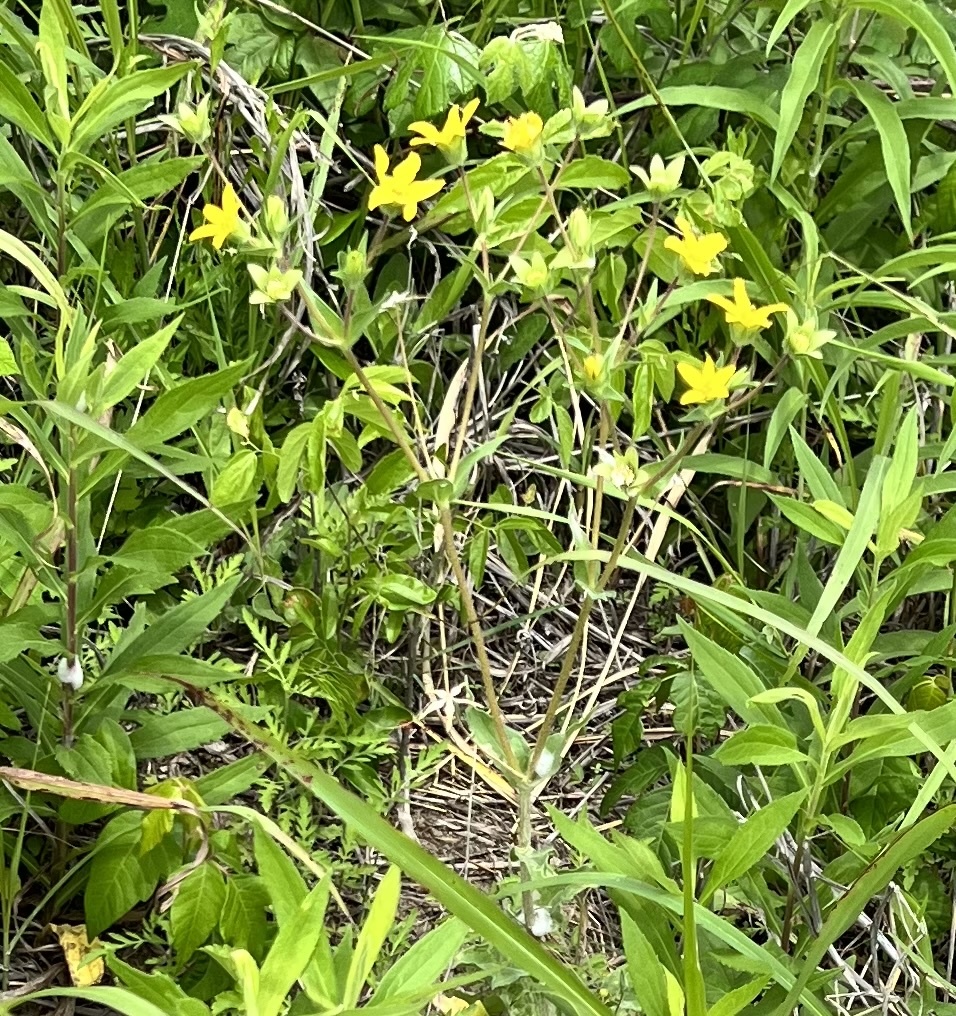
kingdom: Plantae
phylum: Tracheophyta
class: Magnoliopsida
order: Asterales
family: Asteraceae
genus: Lindheimera
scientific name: Lindheimera texana
